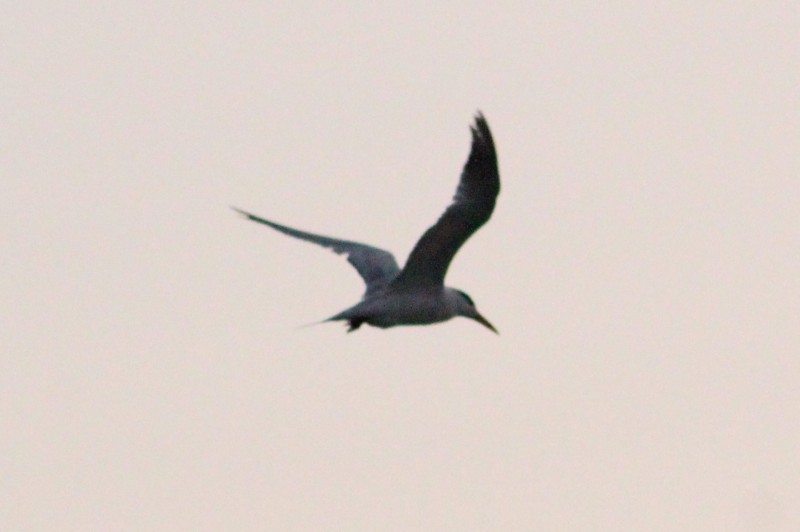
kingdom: Animalia
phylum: Chordata
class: Aves
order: Charadriiformes
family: Laridae
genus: Thalasseus
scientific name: Thalasseus elegans
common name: Elegant tern
